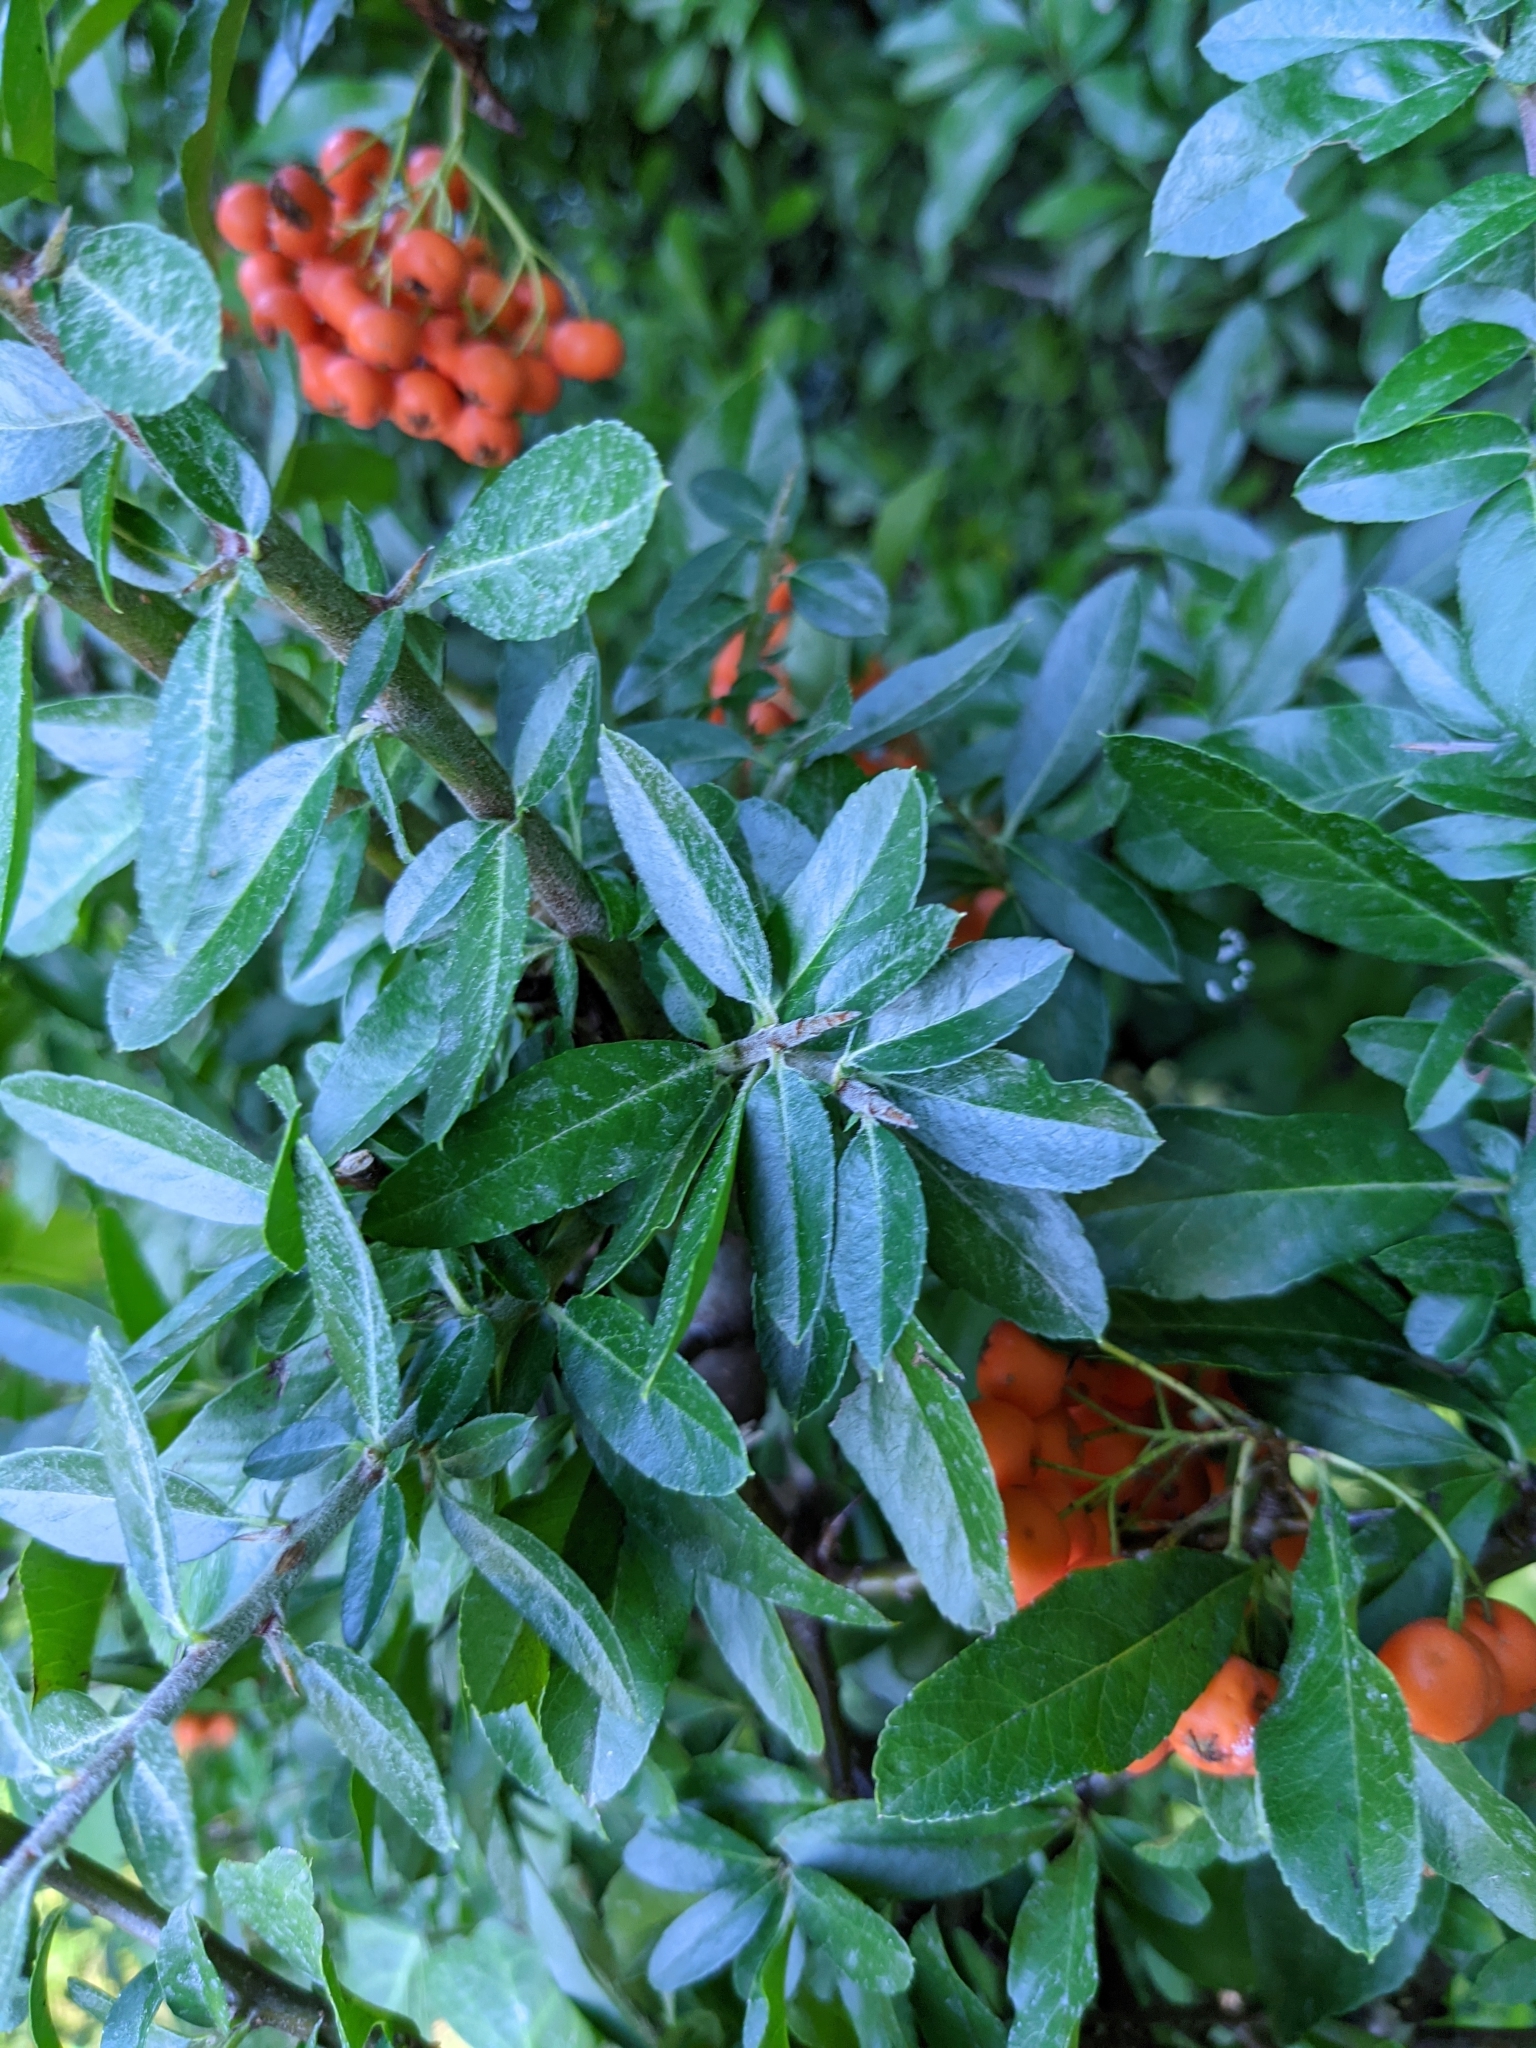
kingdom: Plantae
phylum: Tracheophyta
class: Magnoliopsida
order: Rosales
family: Rosaceae
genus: Pyracantha
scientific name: Pyracantha coccinea
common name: Firethorn
